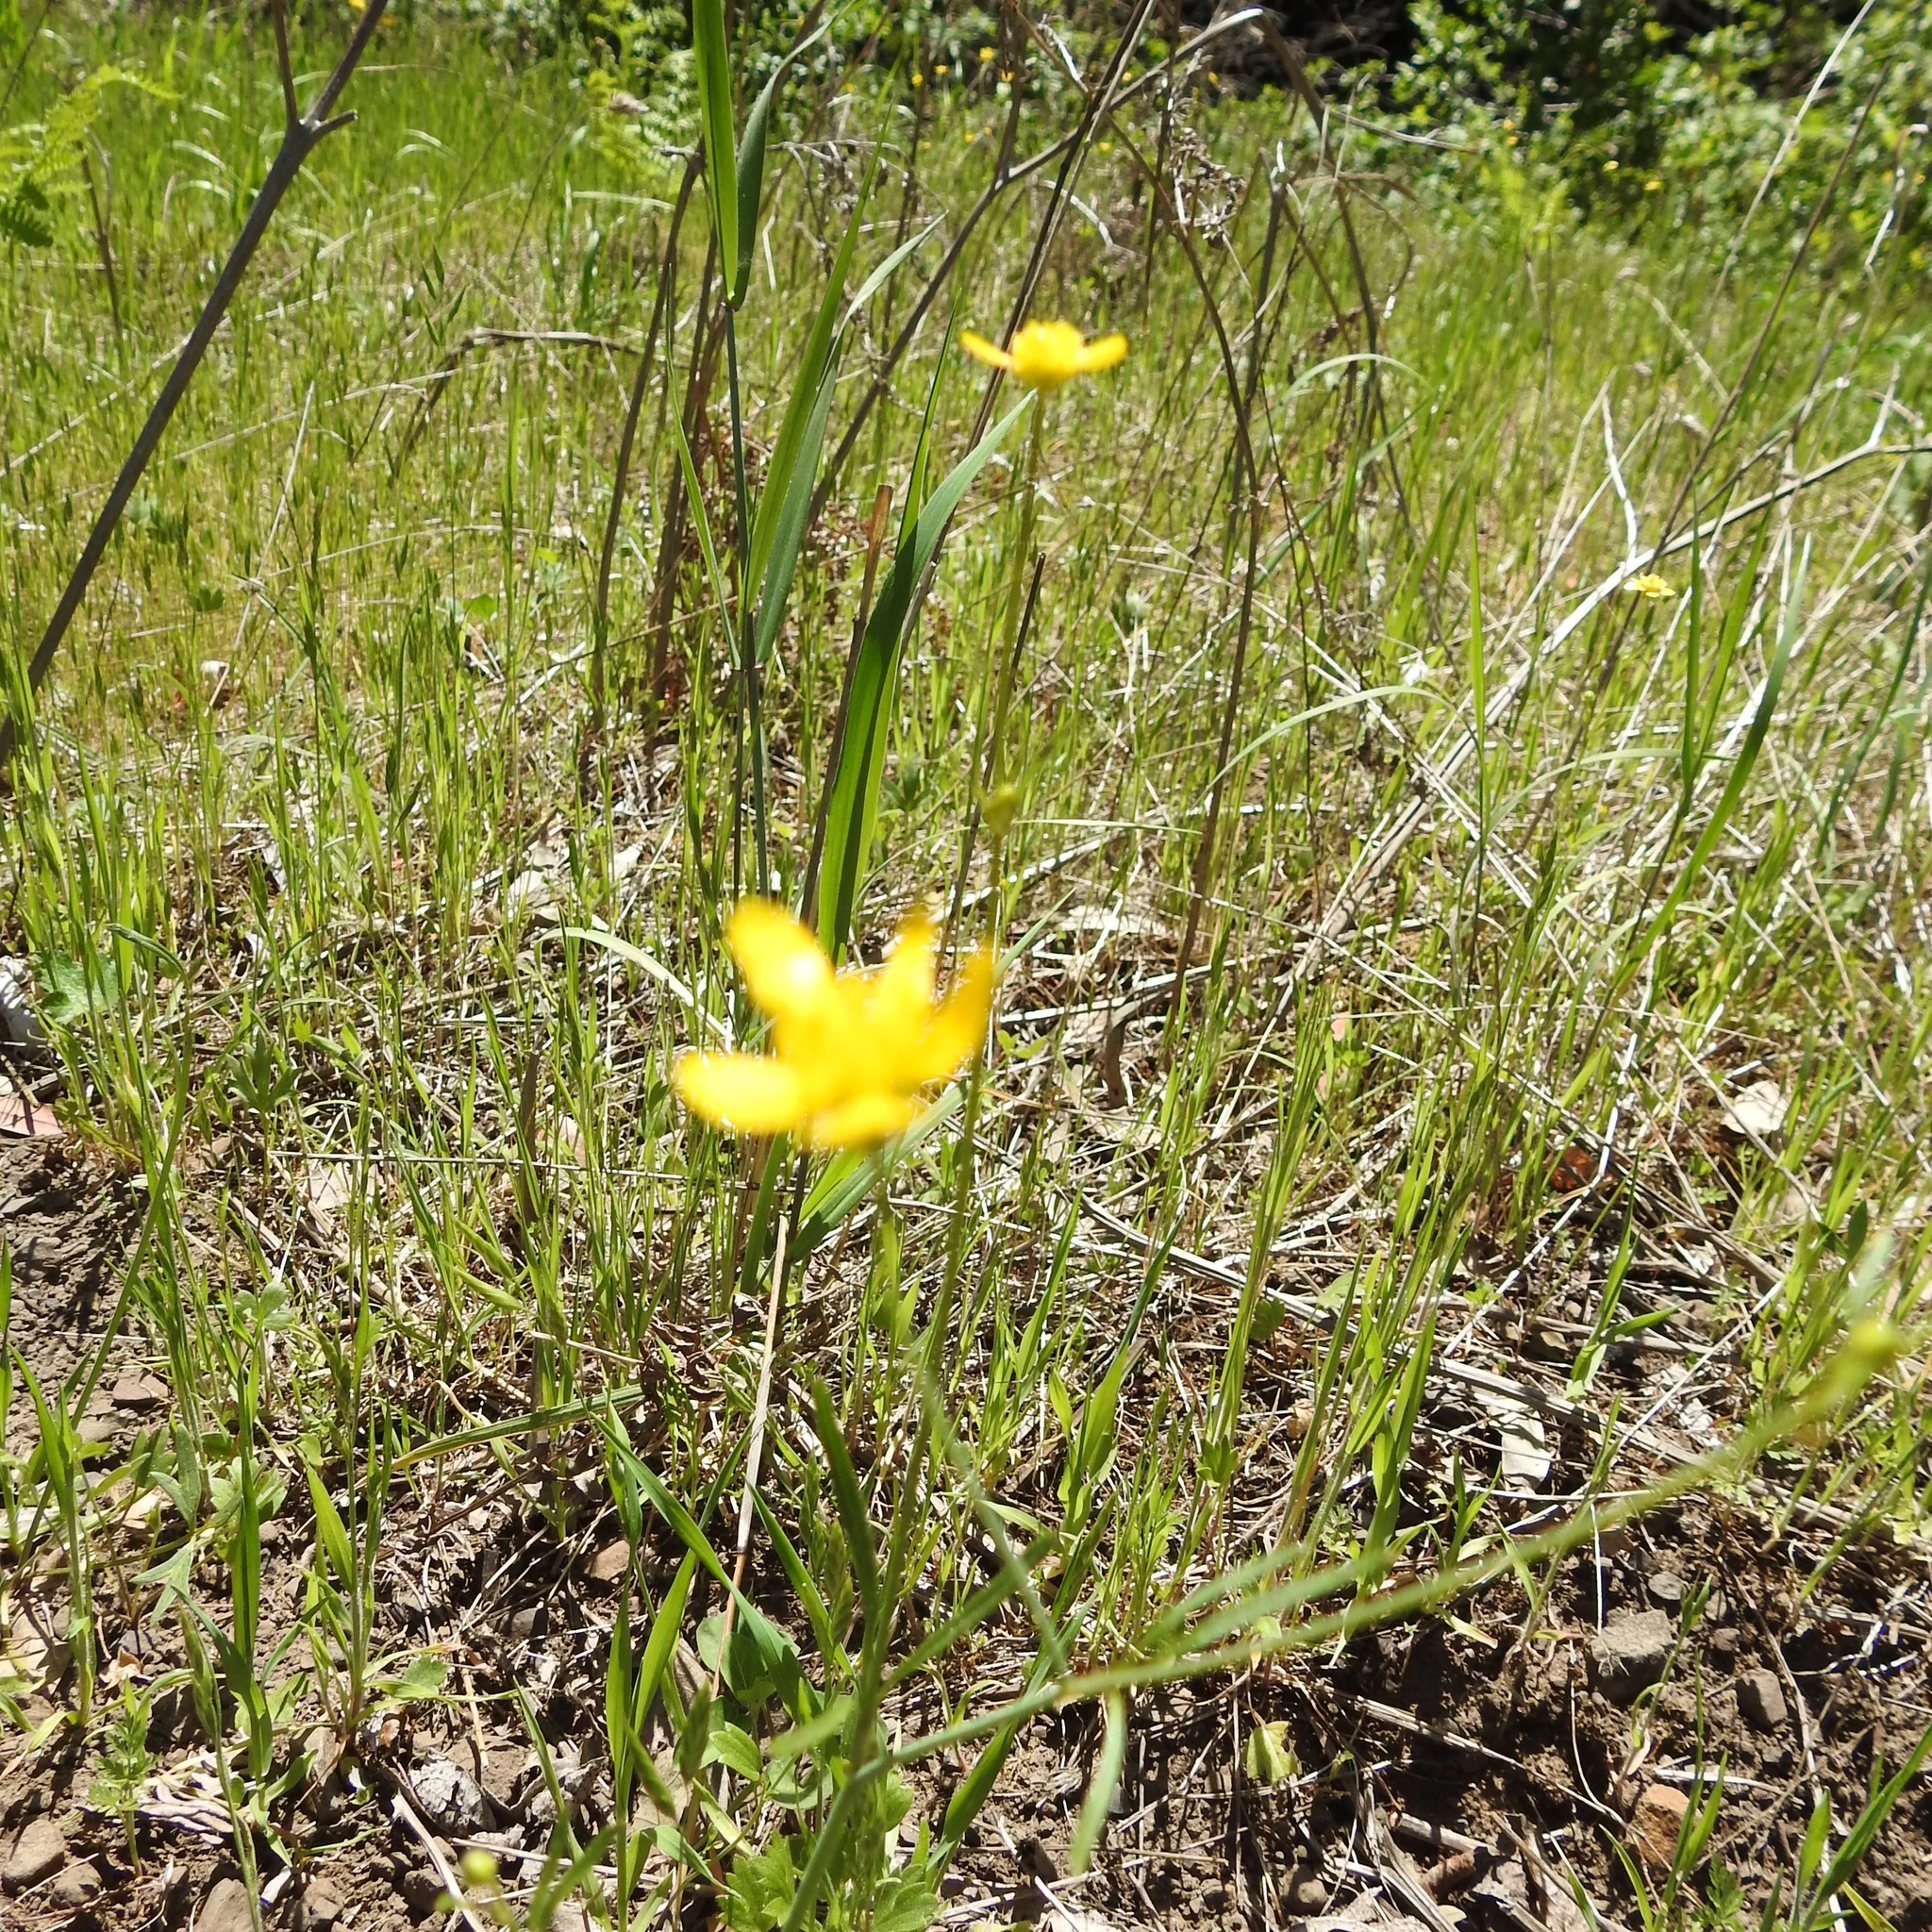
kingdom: Plantae
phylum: Tracheophyta
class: Magnoliopsida
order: Ranunculales
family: Ranunculaceae
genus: Ranunculus
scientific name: Ranunculus occidentalis
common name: Western buttercup
